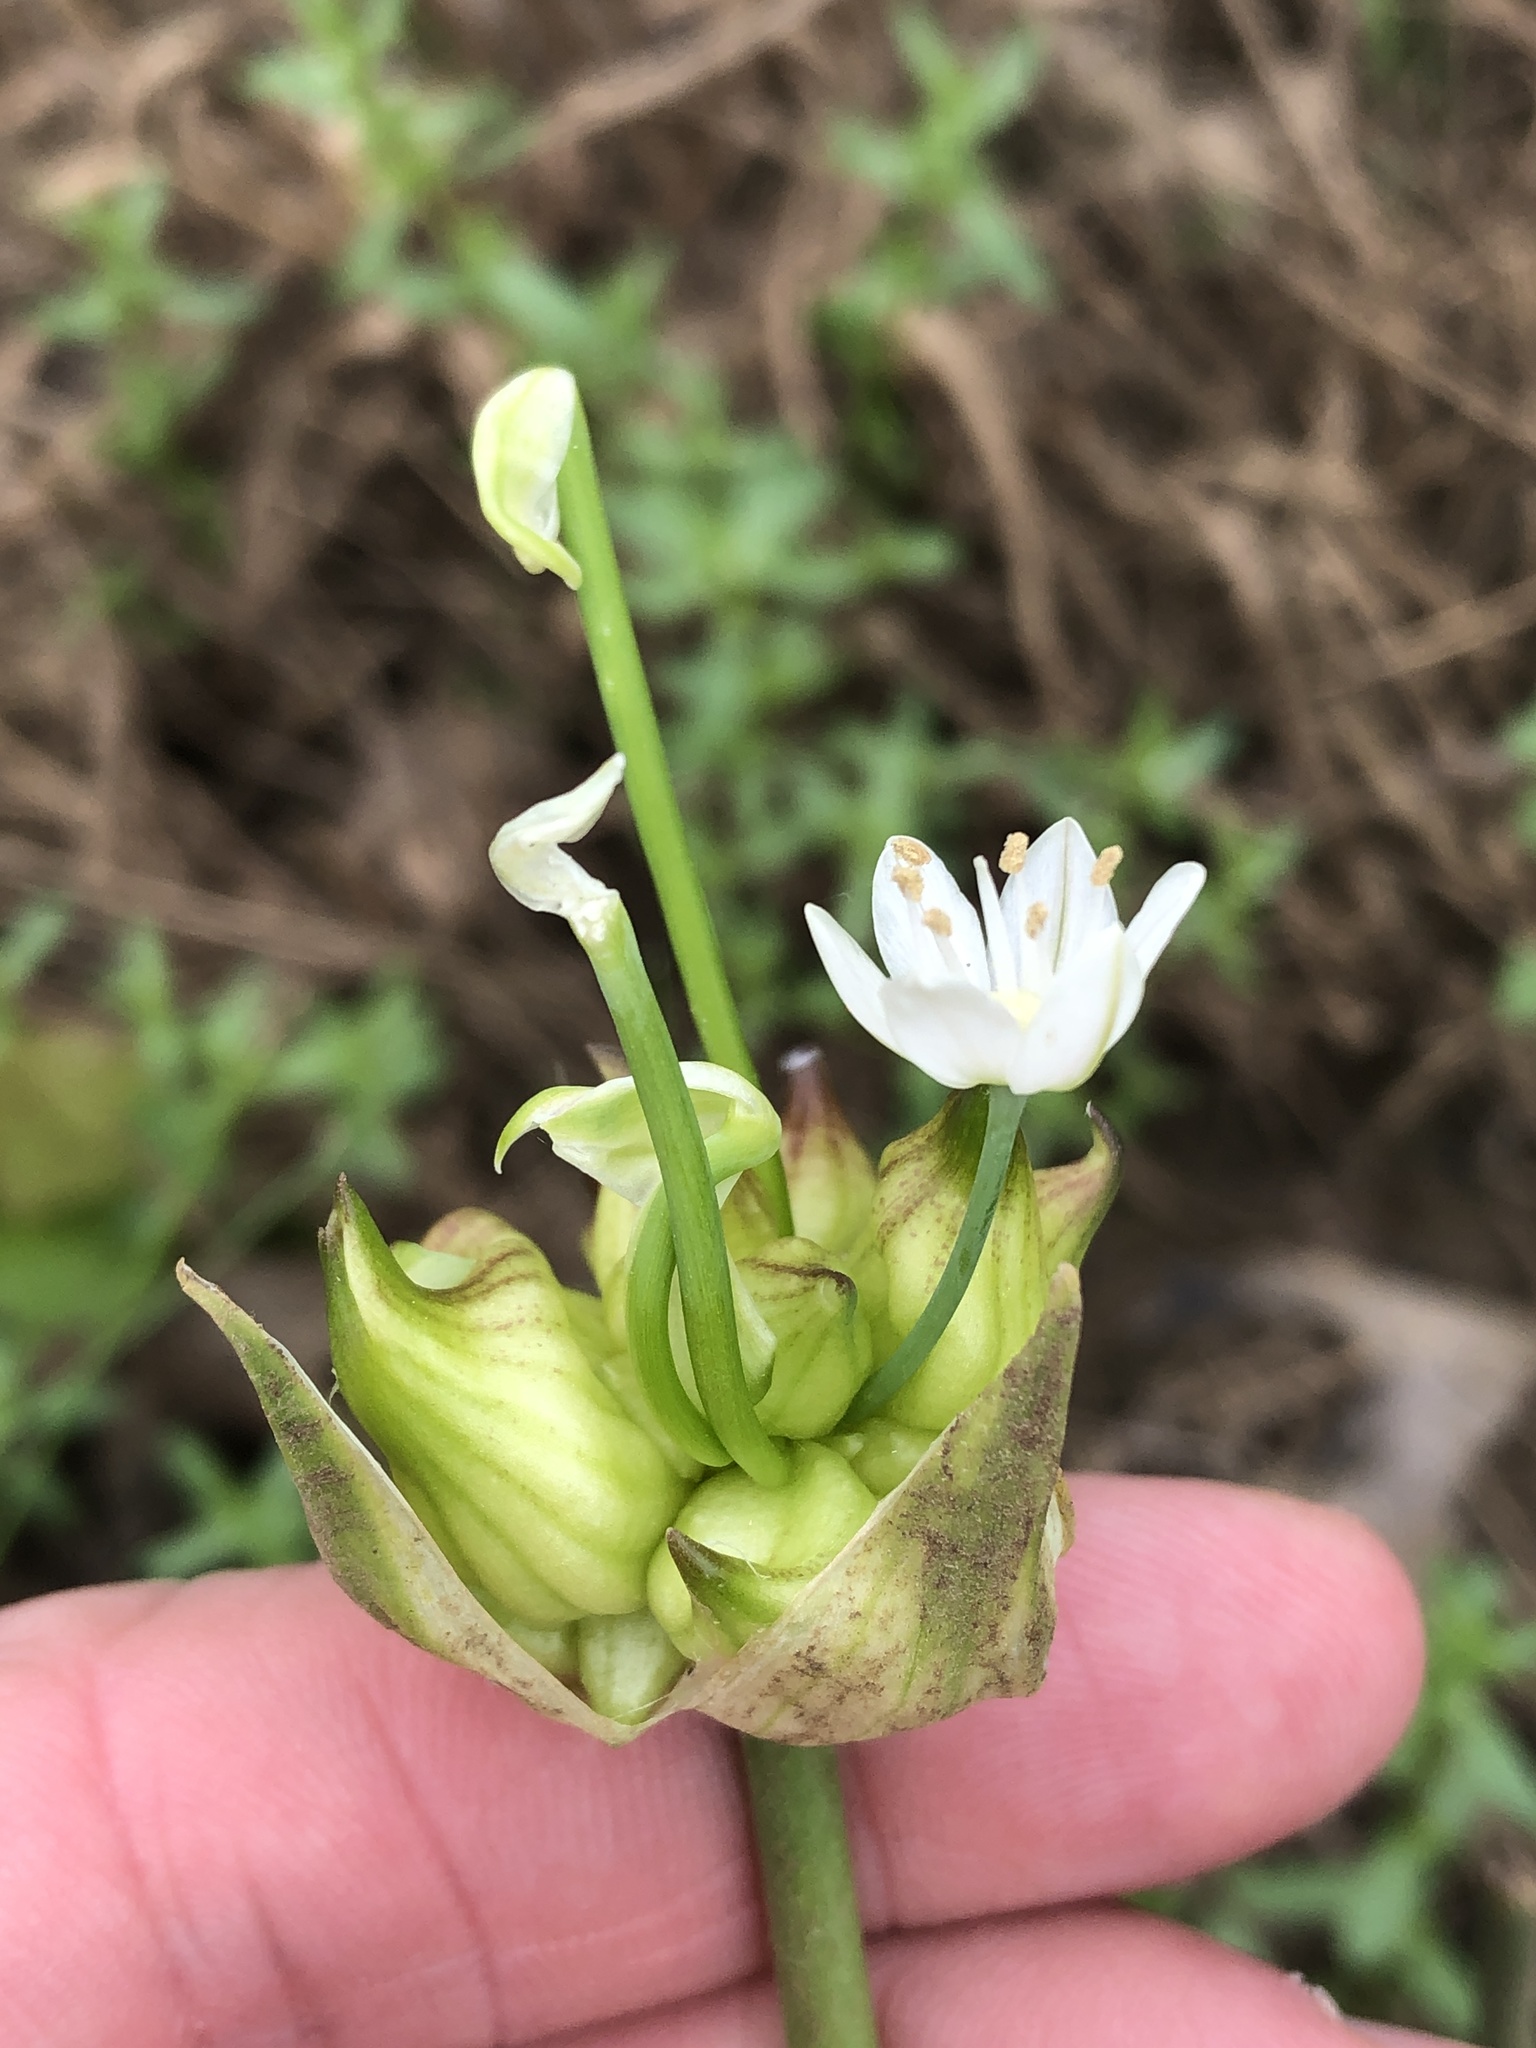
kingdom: Plantae
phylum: Tracheophyta
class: Liliopsida
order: Asparagales
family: Amaryllidaceae
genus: Allium
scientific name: Allium canadense
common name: Meadow garlic
